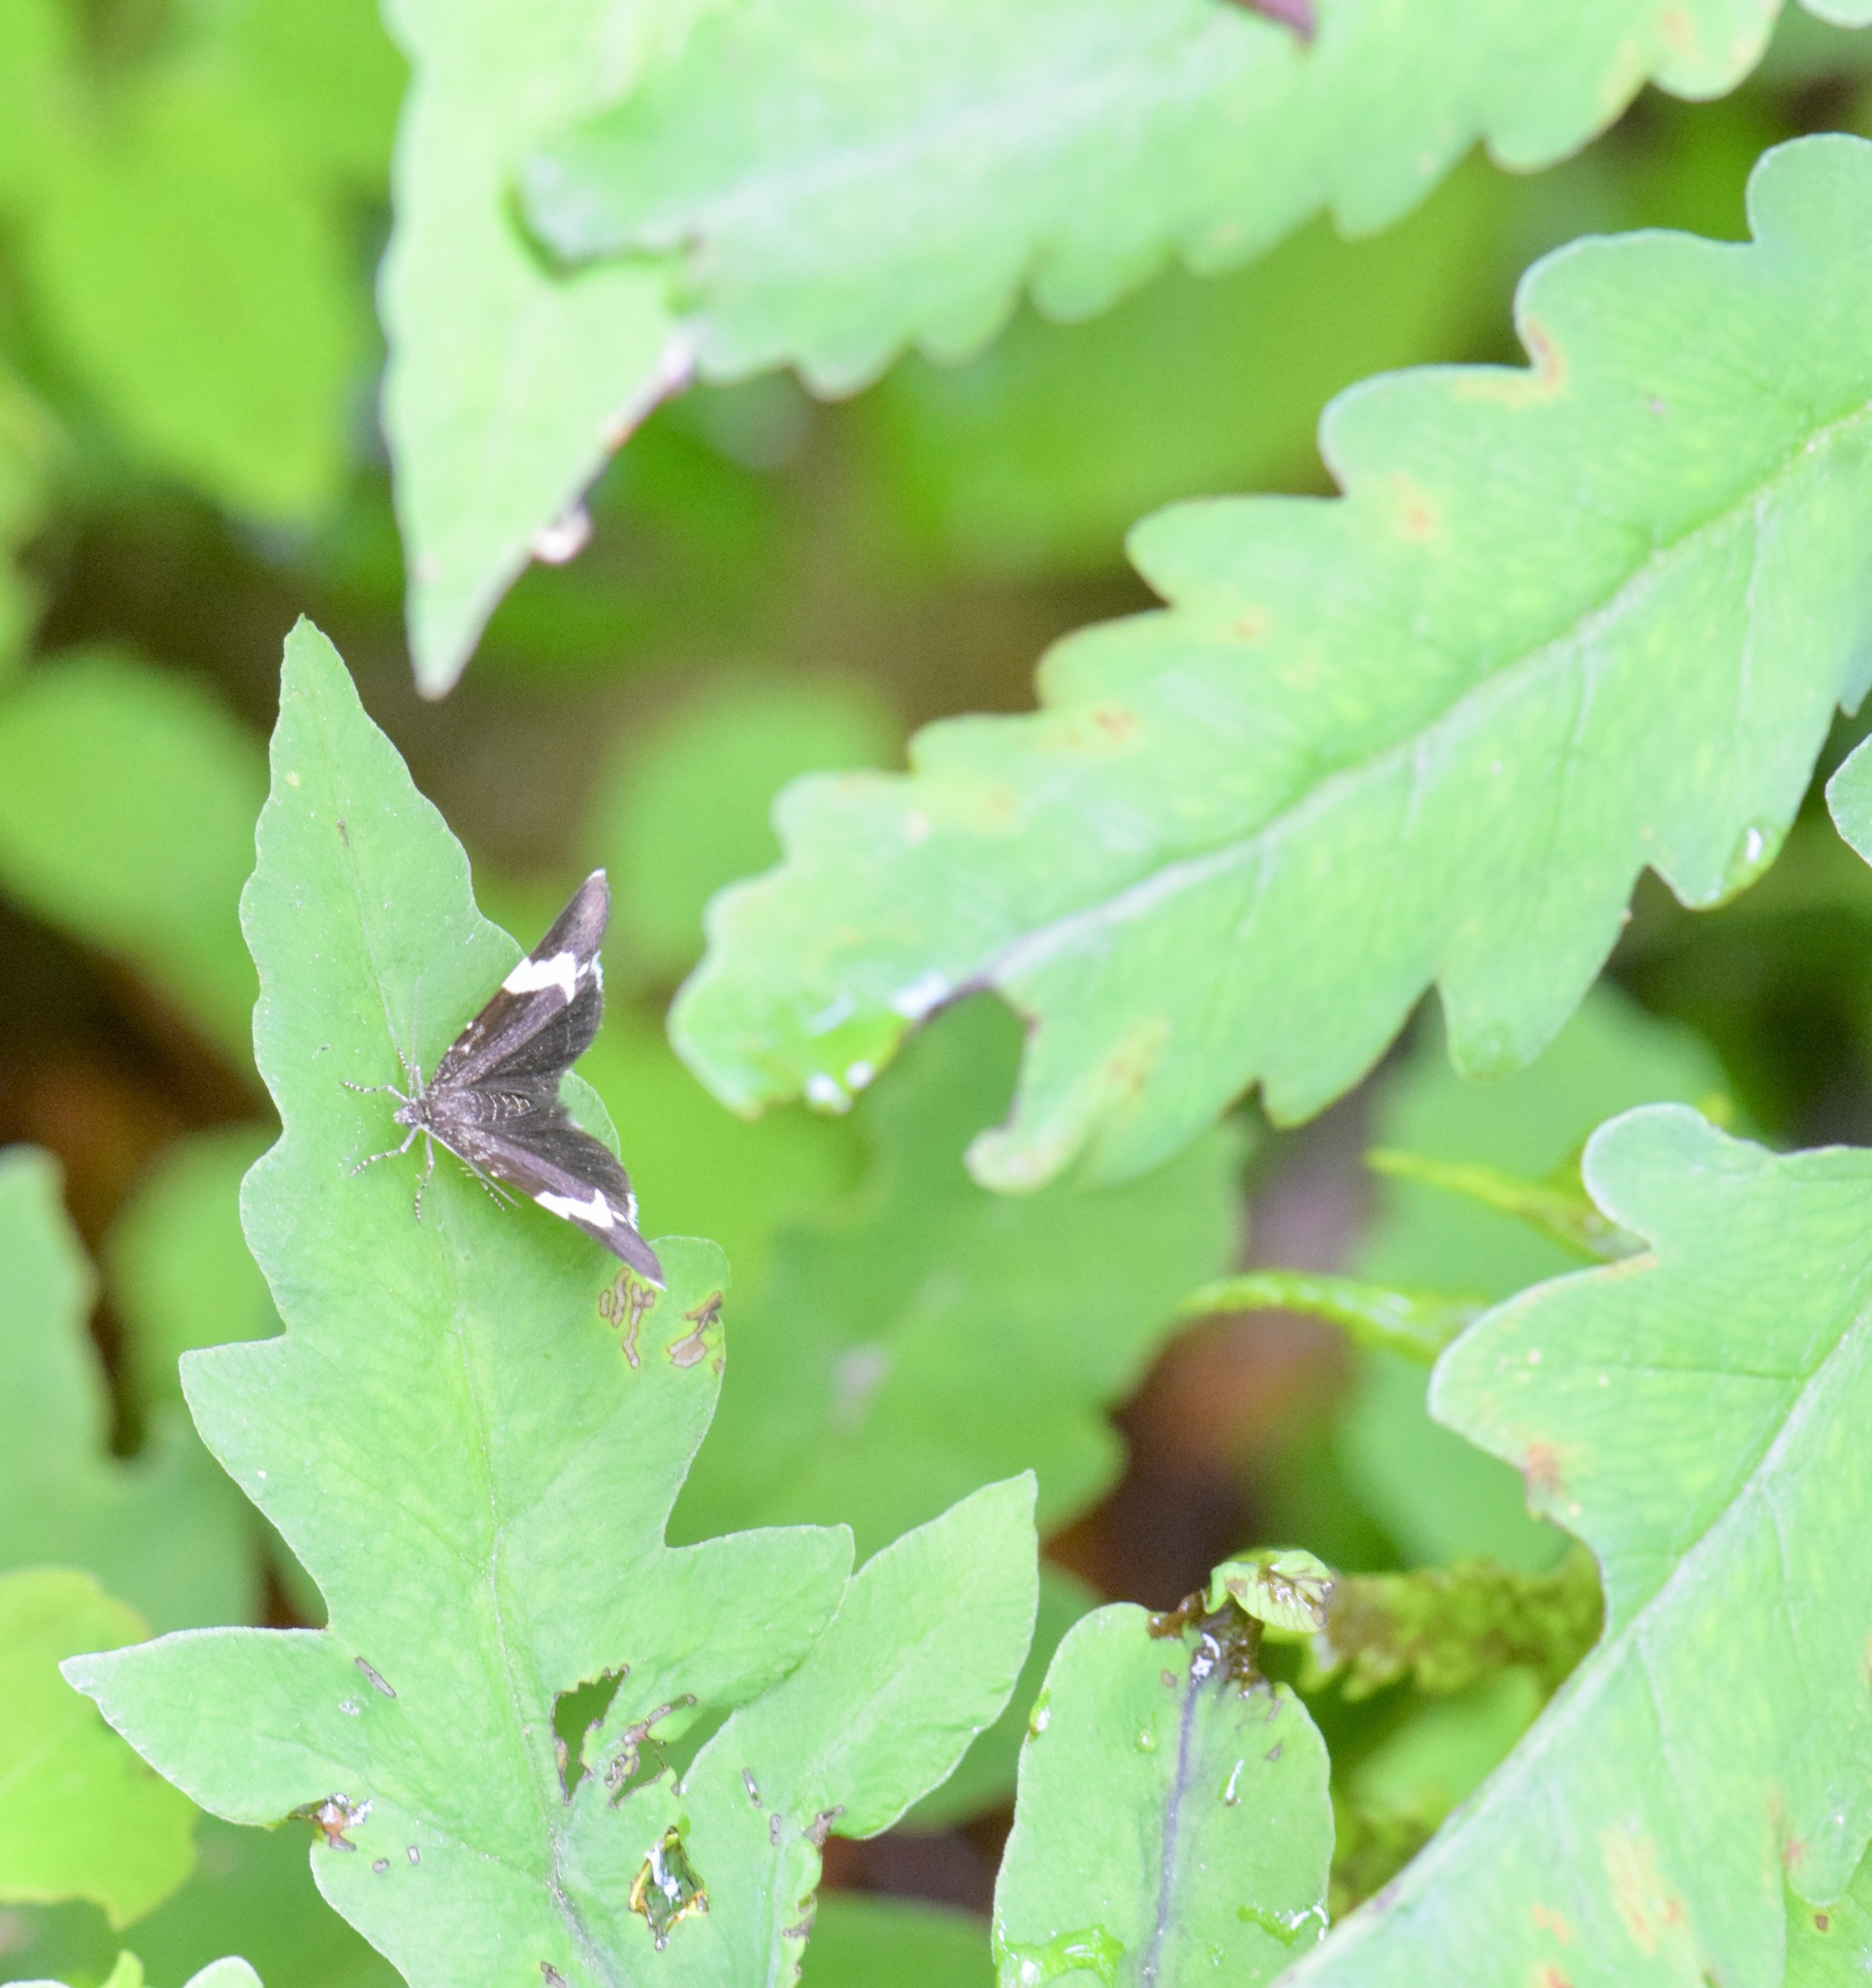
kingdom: Animalia
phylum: Arthropoda
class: Insecta
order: Lepidoptera
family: Geometridae
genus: Trichodezia
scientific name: Trichodezia albovittata
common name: White striped black
